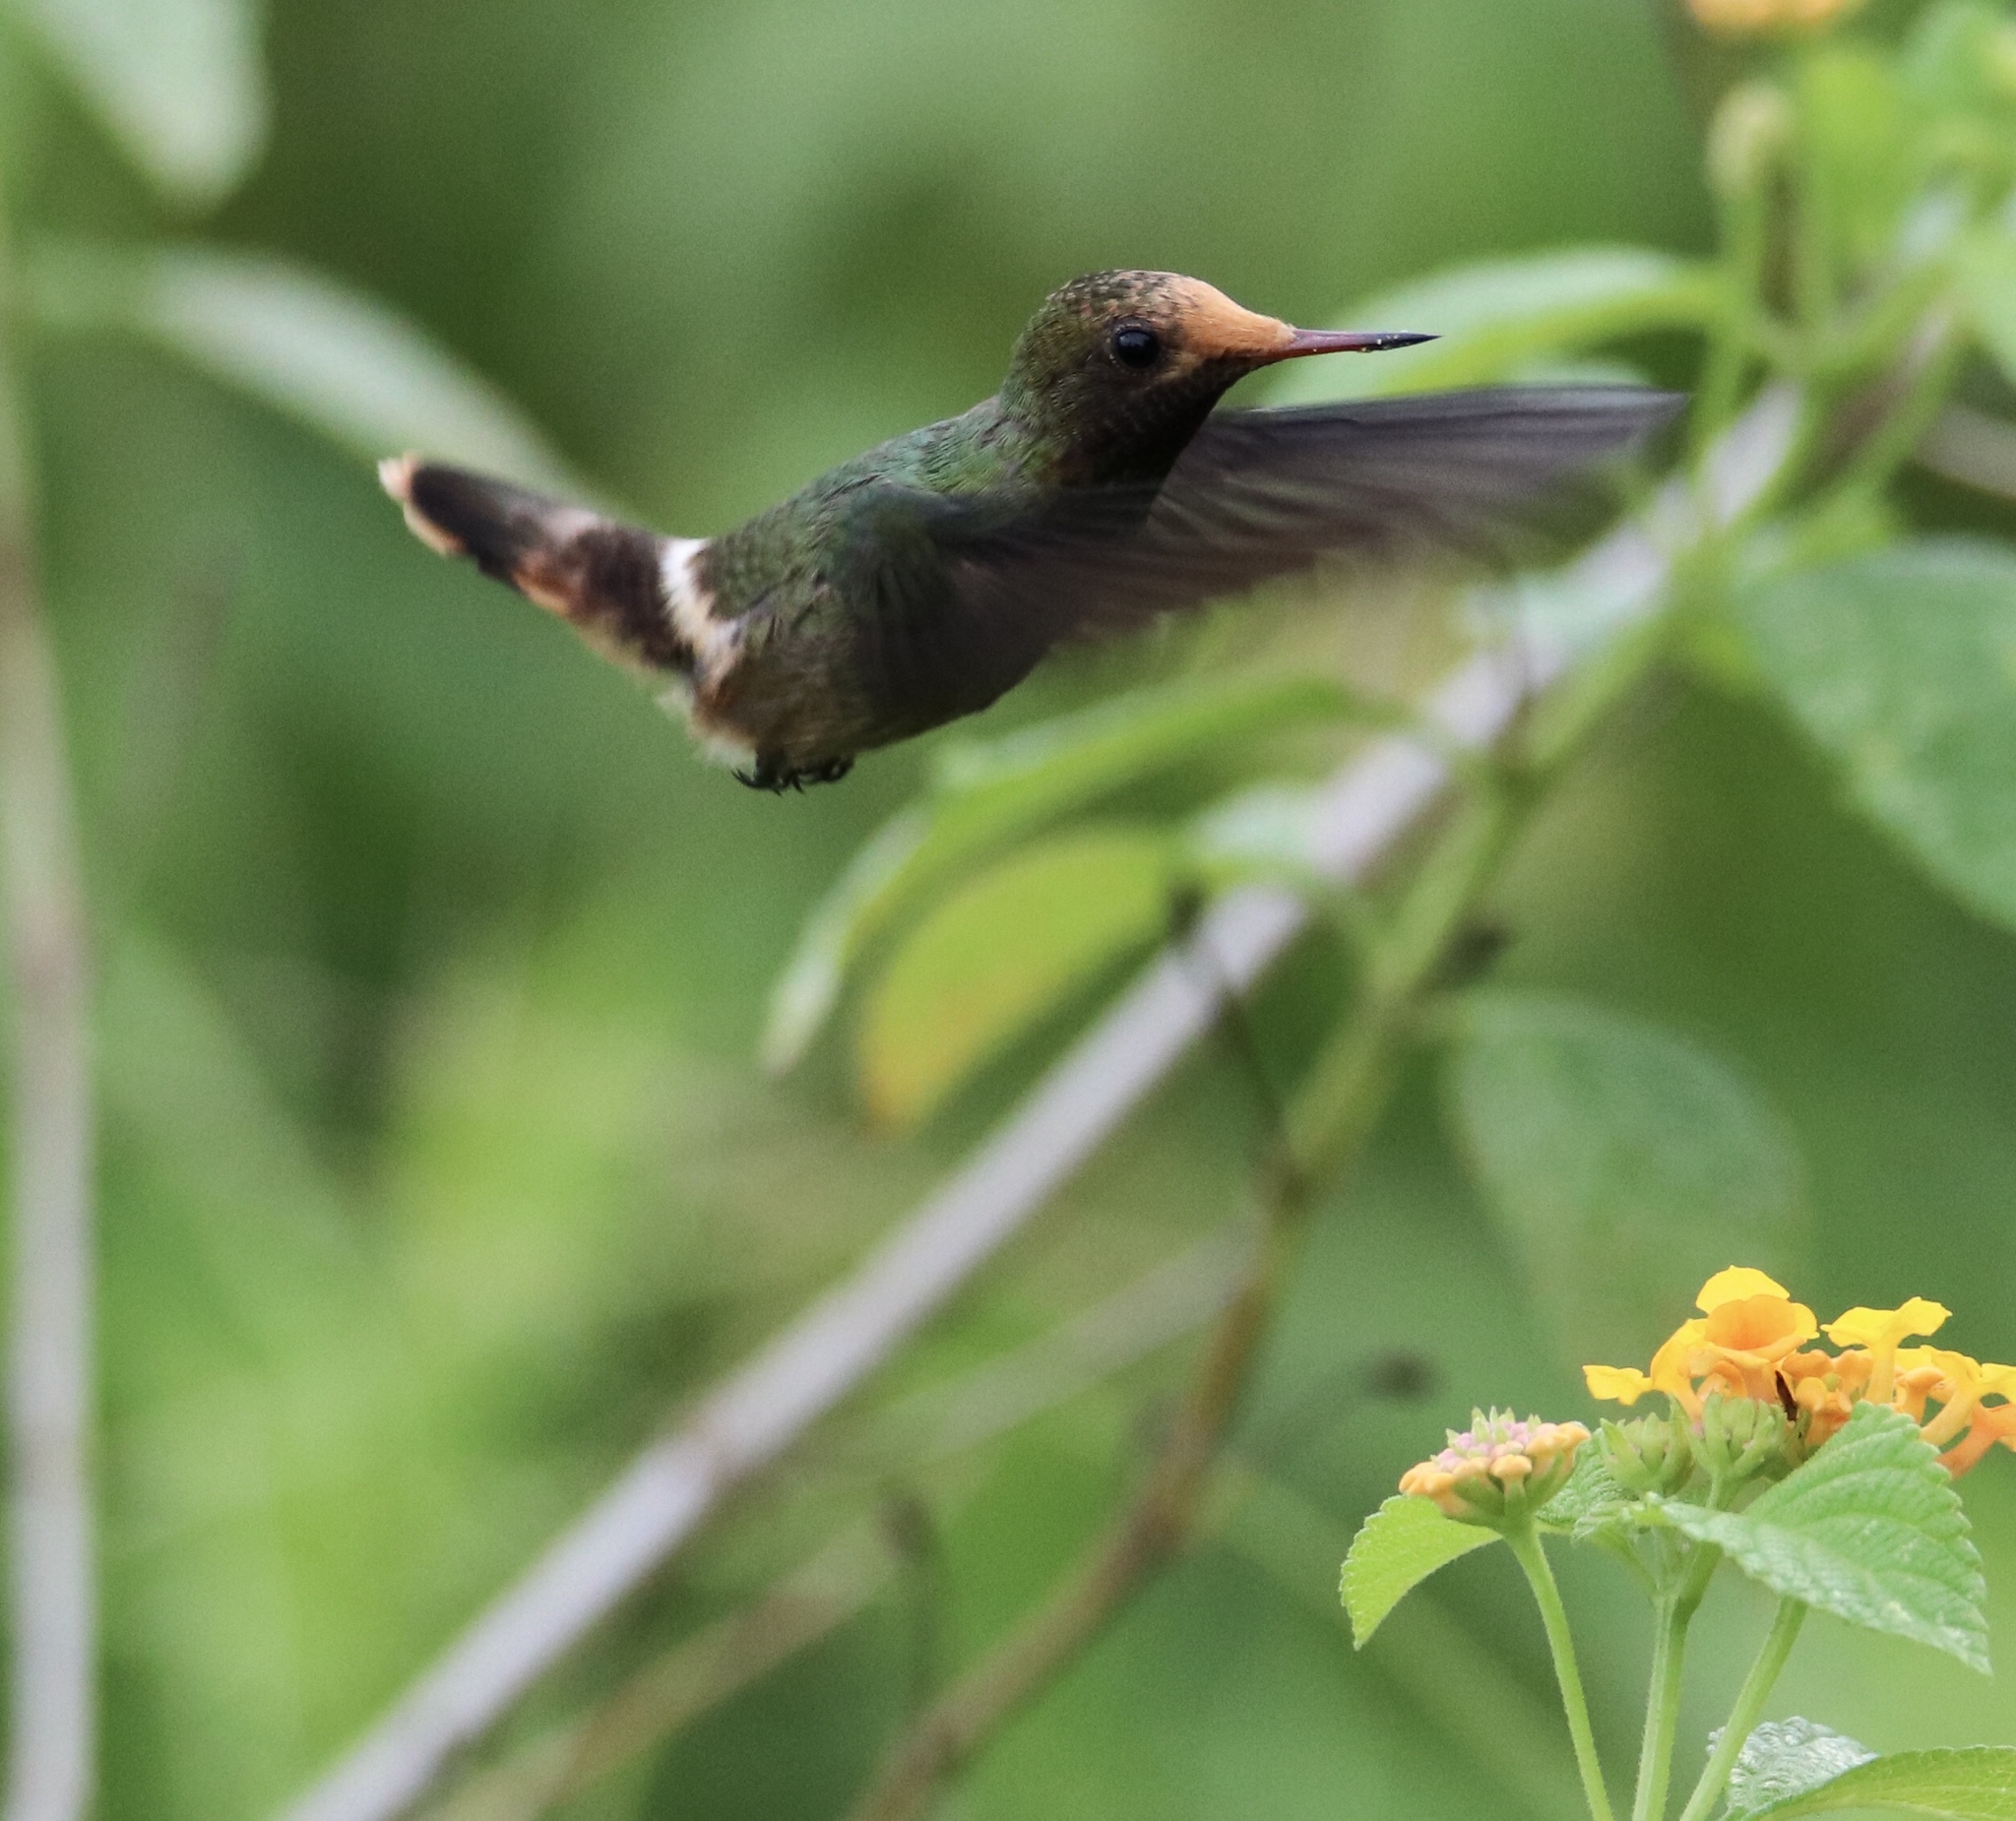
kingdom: Animalia
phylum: Chordata
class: Aves
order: Apodiformes
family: Trochilidae
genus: Lophornis
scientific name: Lophornis delattrei
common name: Rufous-crested coquette
